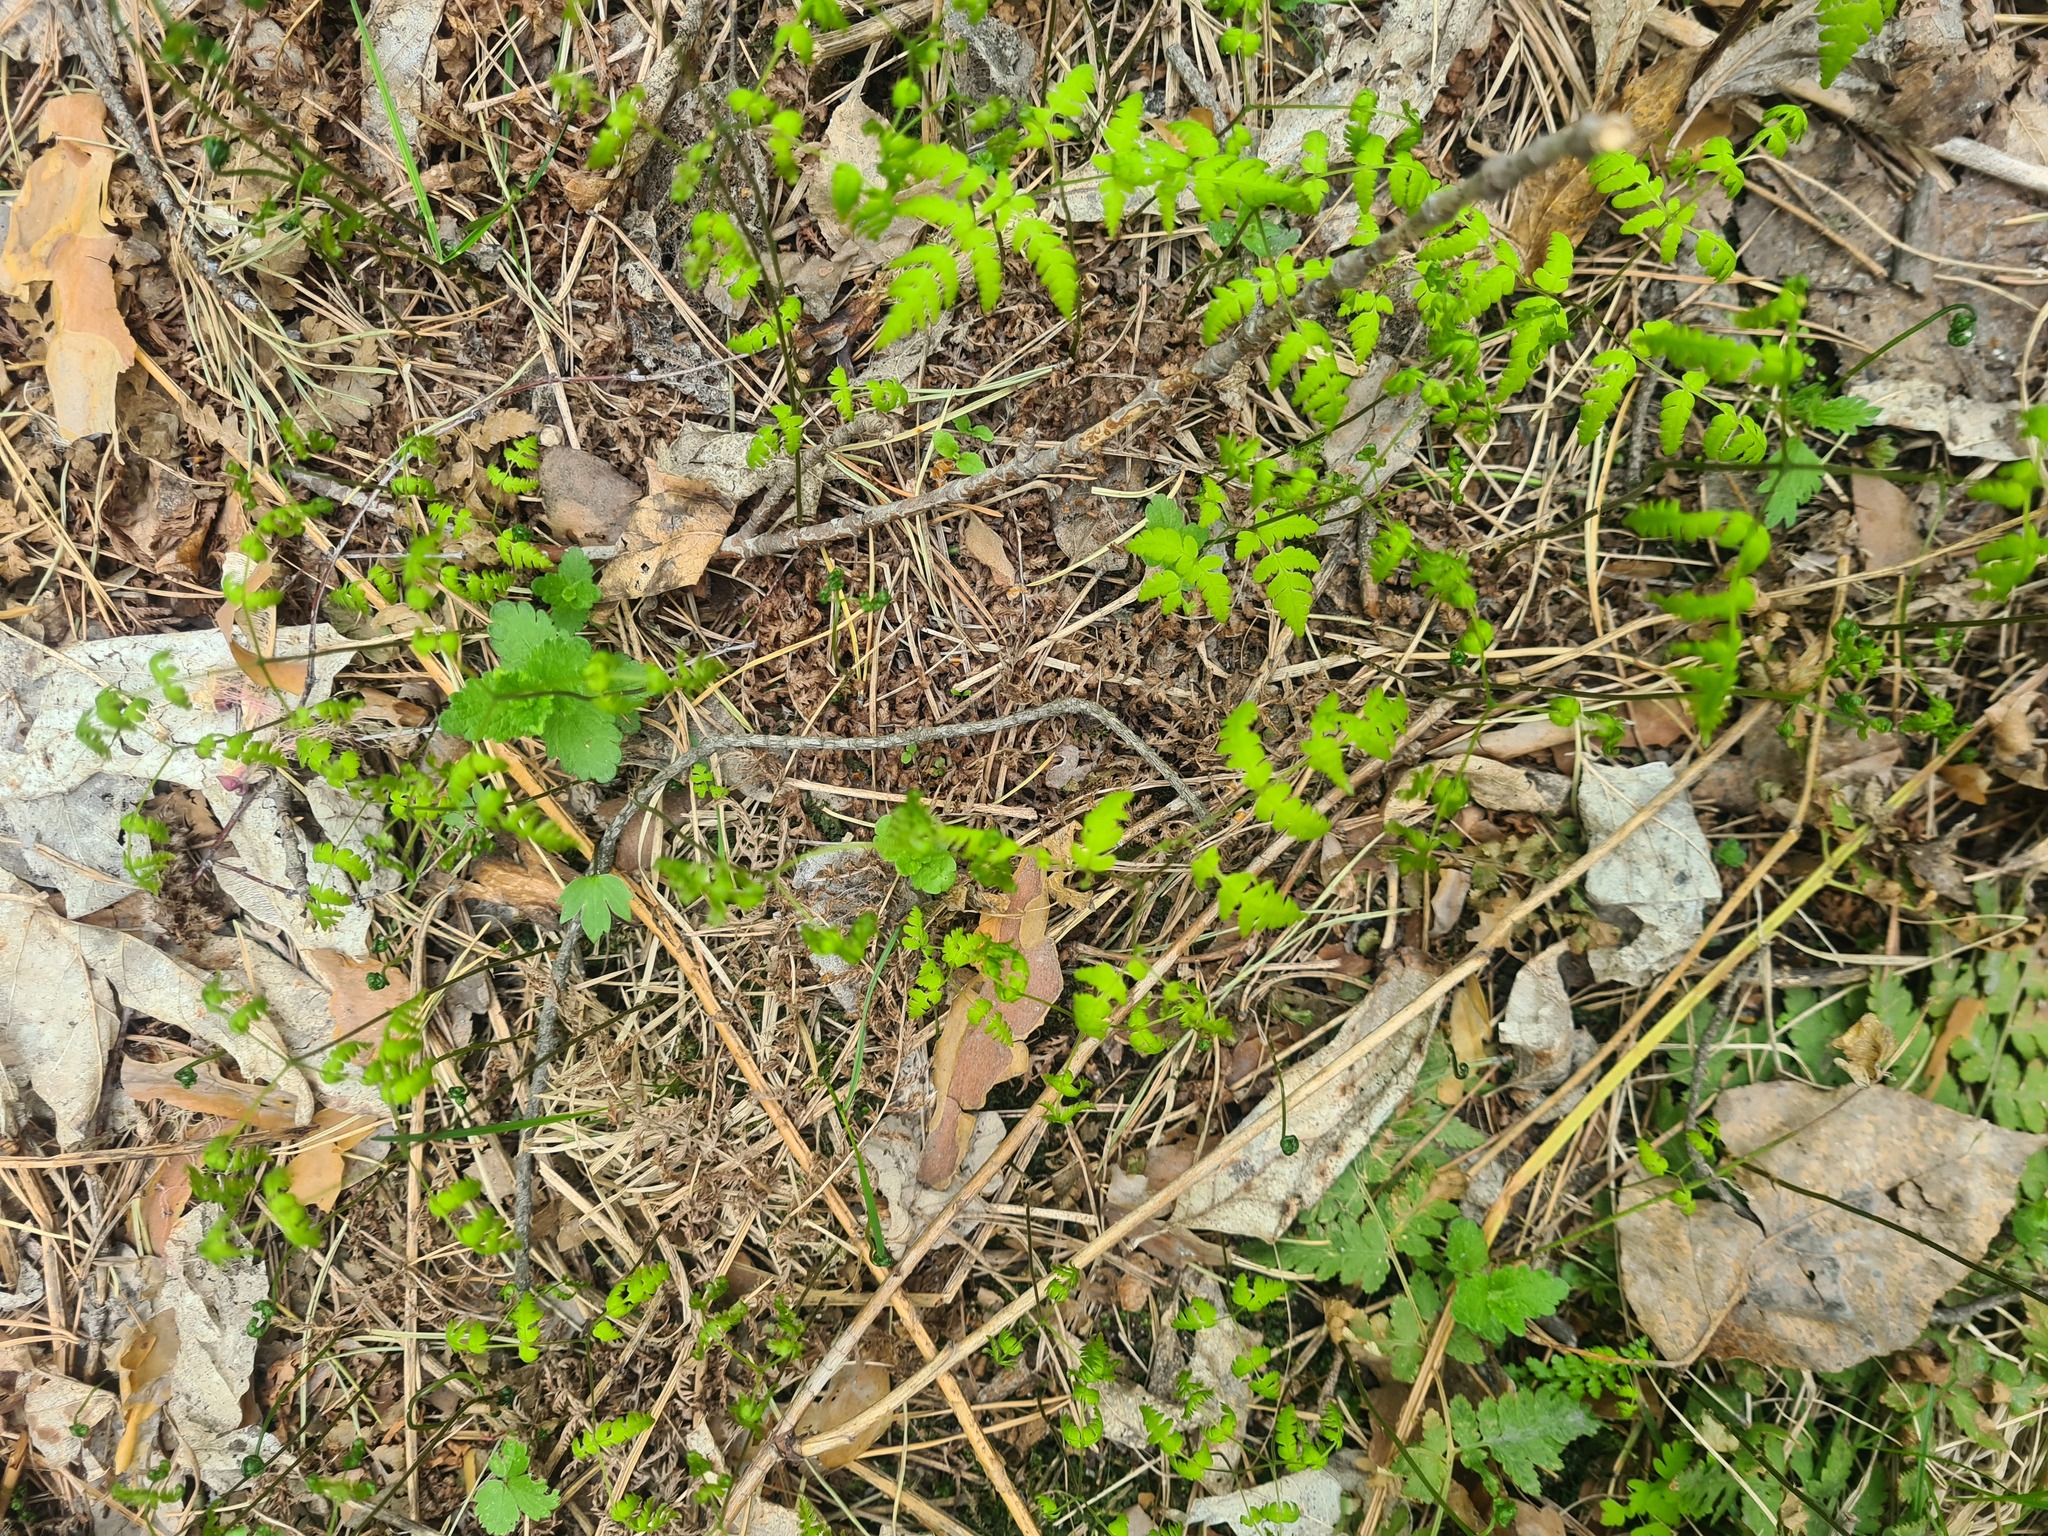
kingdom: Plantae
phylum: Tracheophyta
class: Polypodiopsida
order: Polypodiales
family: Cystopteridaceae
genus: Gymnocarpium
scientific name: Gymnocarpium dryopteris
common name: Oak fern
